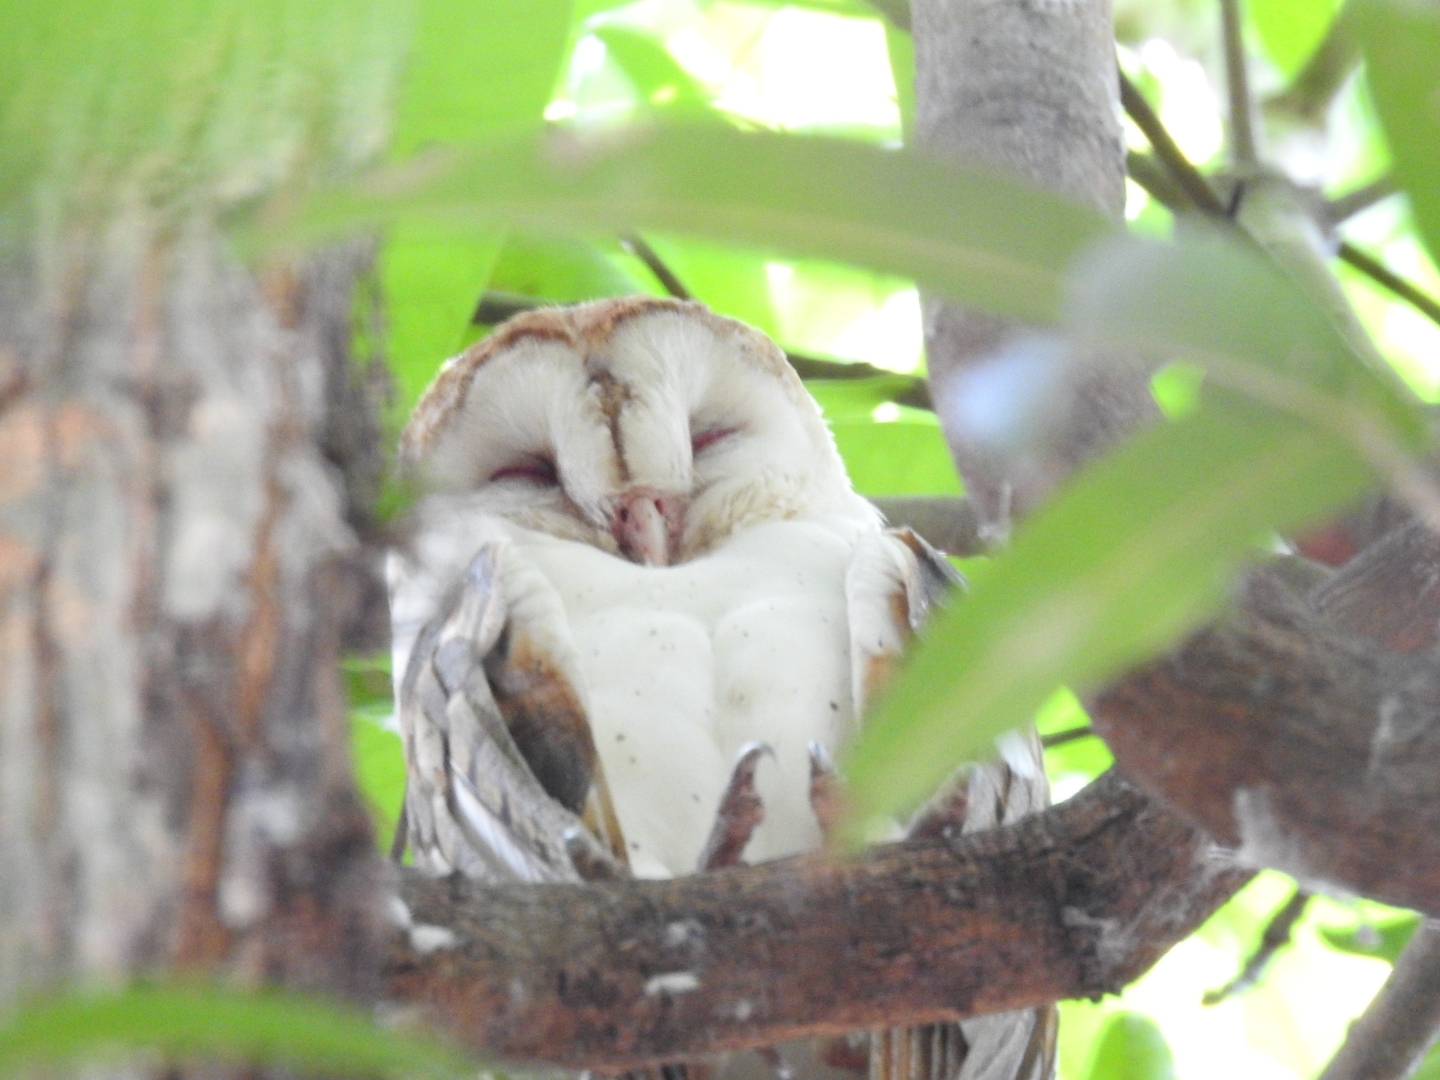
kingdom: Animalia
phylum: Chordata
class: Aves
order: Strigiformes
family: Tytonidae
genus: Tyto
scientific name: Tyto alba
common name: Barn owl
